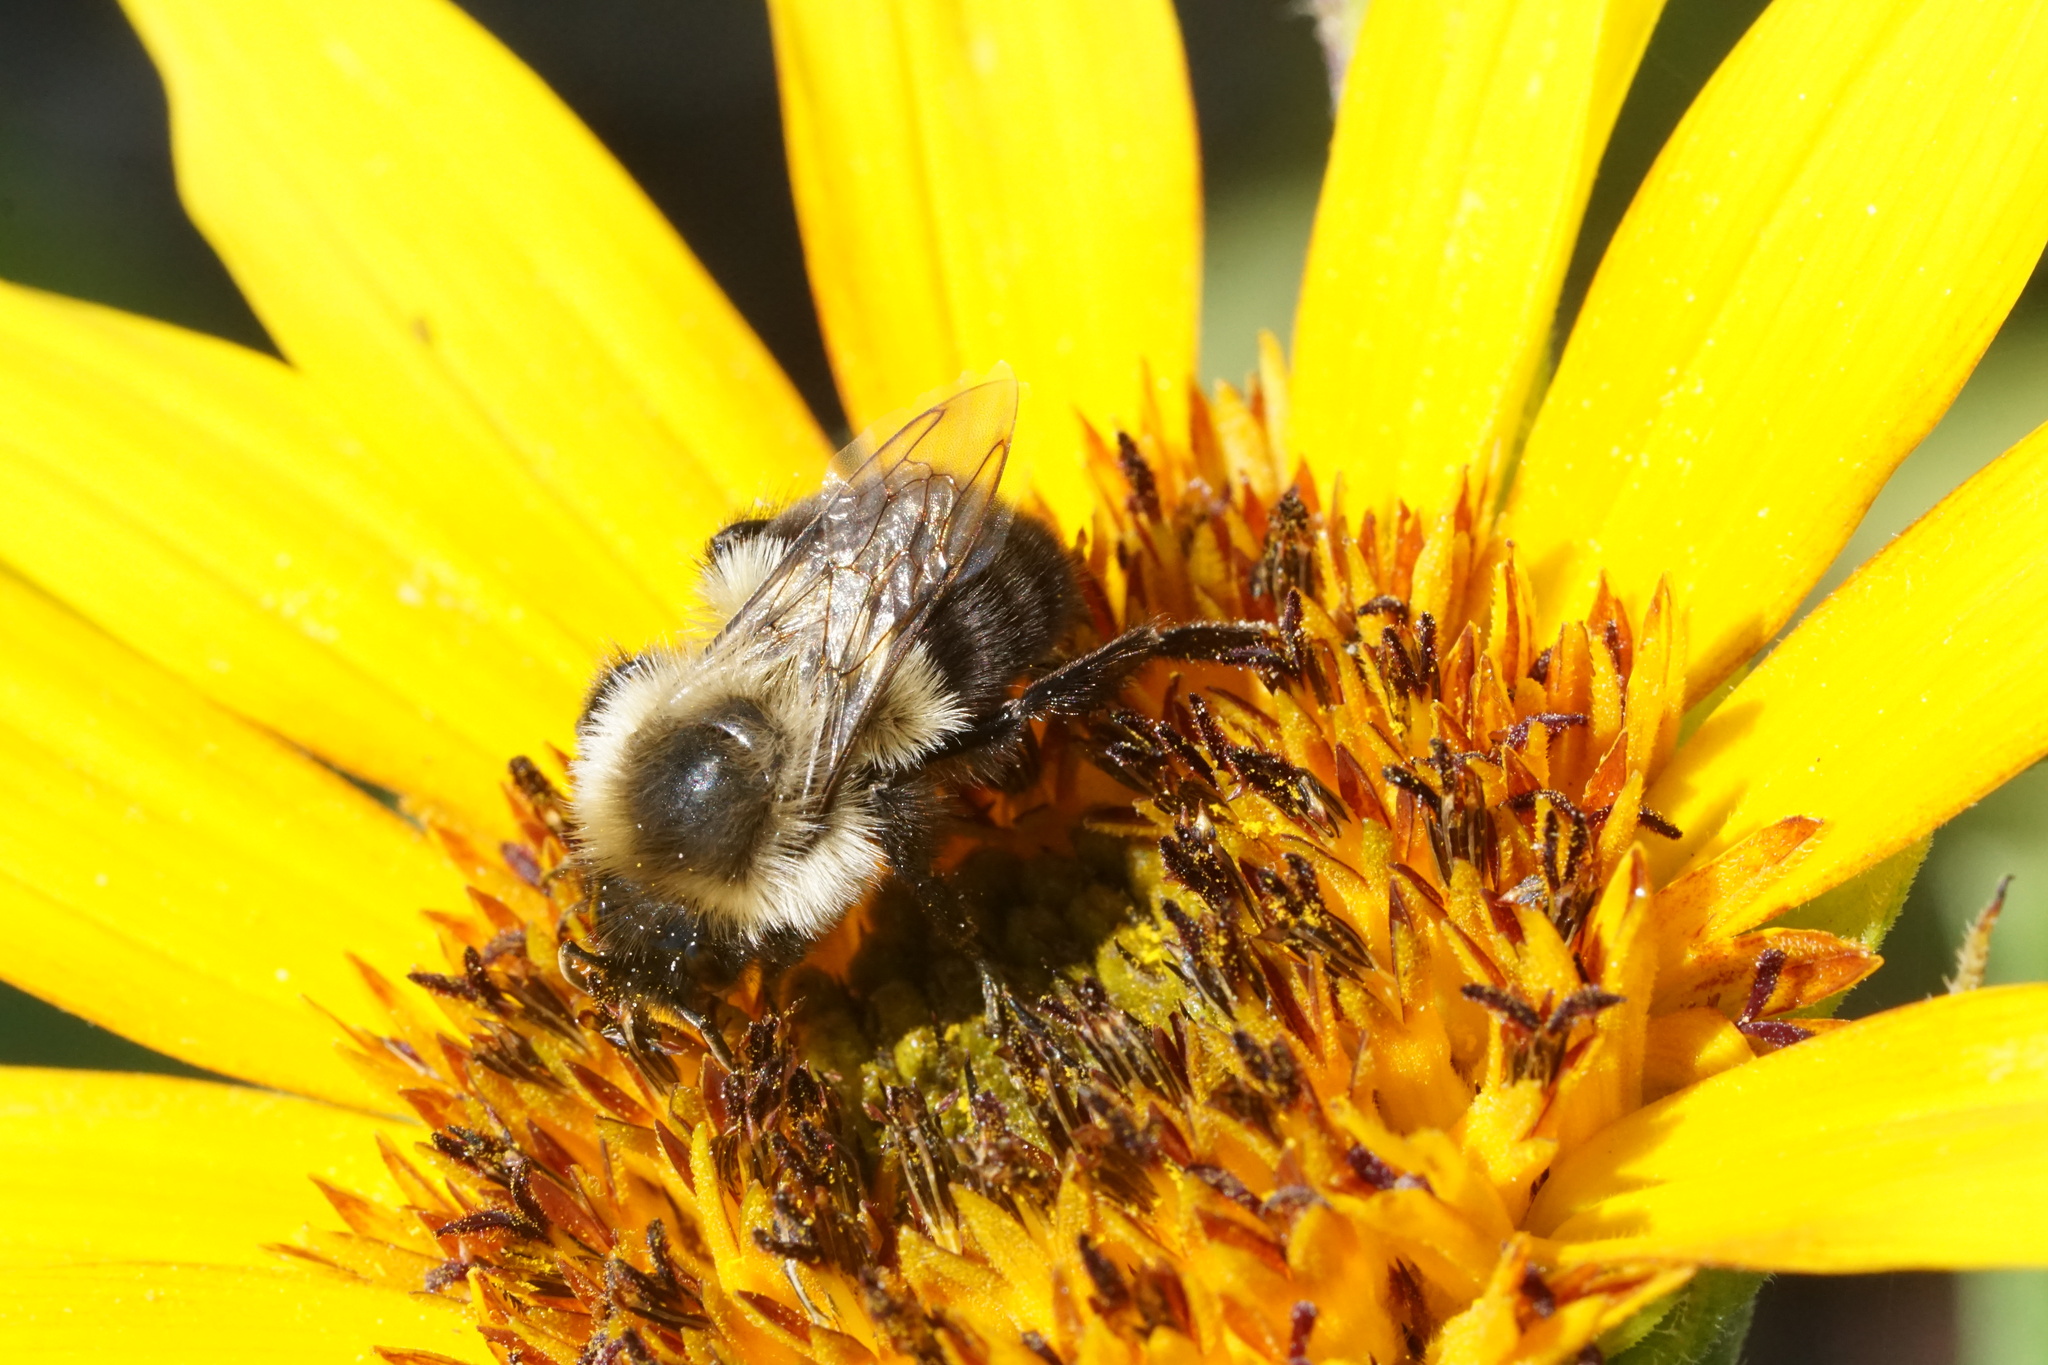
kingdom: Animalia
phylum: Arthropoda
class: Insecta
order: Hymenoptera
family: Apidae
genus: Bombus
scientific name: Bombus impatiens
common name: Common eastern bumble bee
